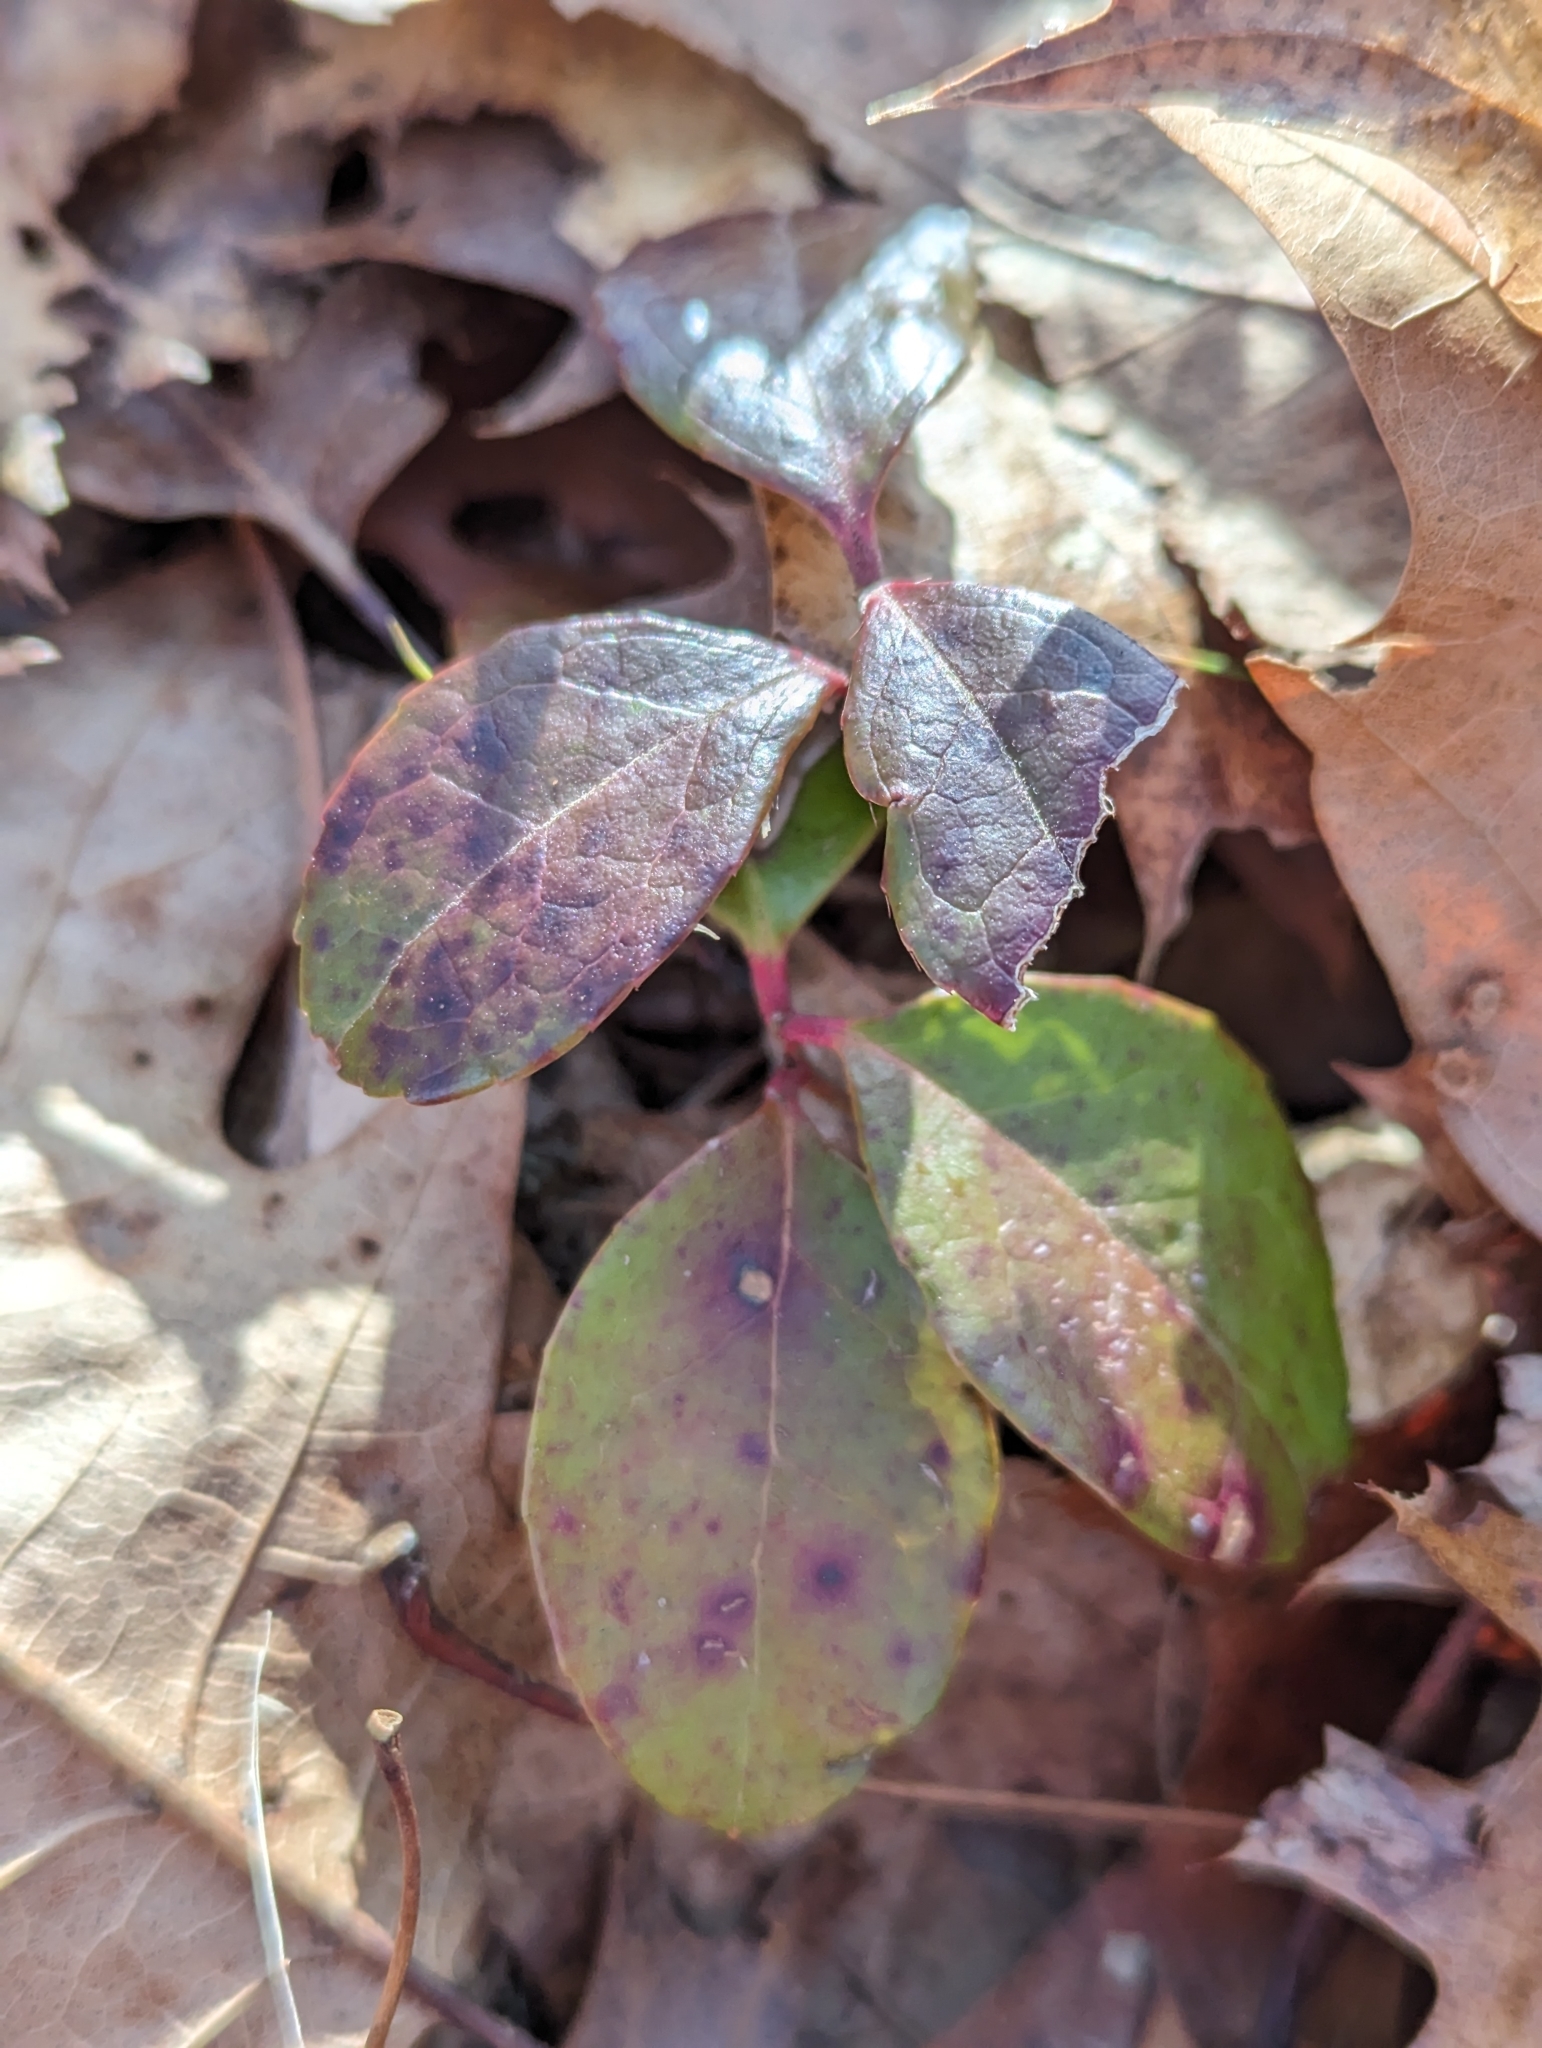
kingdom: Plantae
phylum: Tracheophyta
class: Magnoliopsida
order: Ericales
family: Ericaceae
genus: Gaultheria
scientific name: Gaultheria procumbens
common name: Checkerberry
